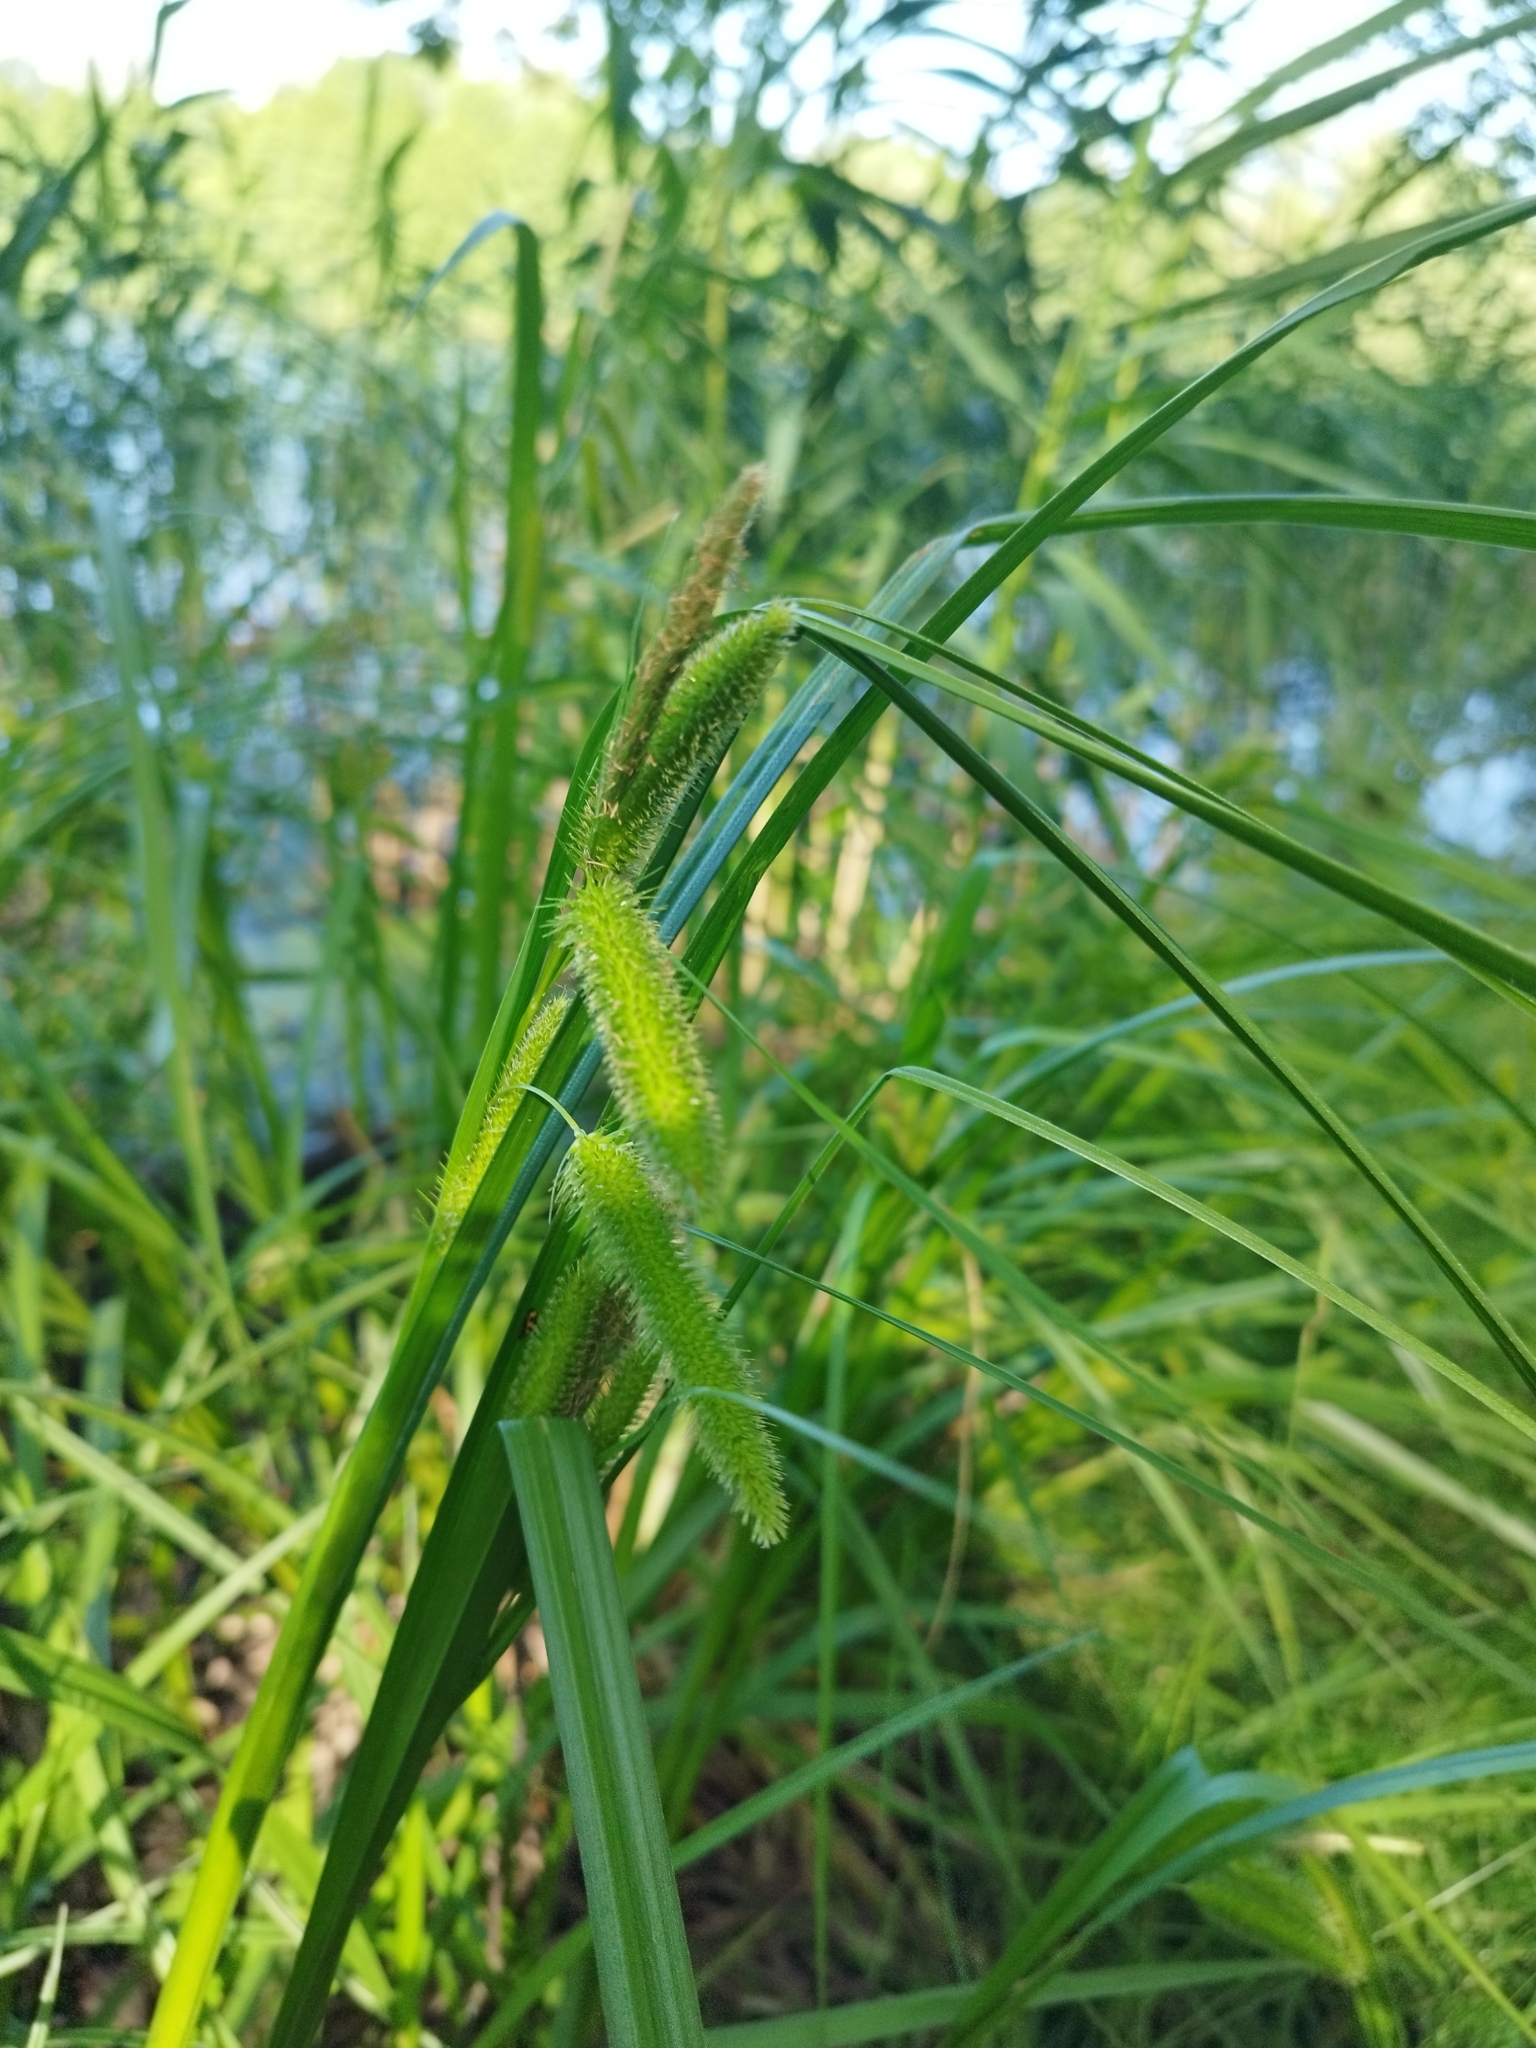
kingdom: Plantae
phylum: Tracheophyta
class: Liliopsida
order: Poales
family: Cyperaceae
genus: Carex
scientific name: Carex pseudocyperus
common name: Cyperus sedge
